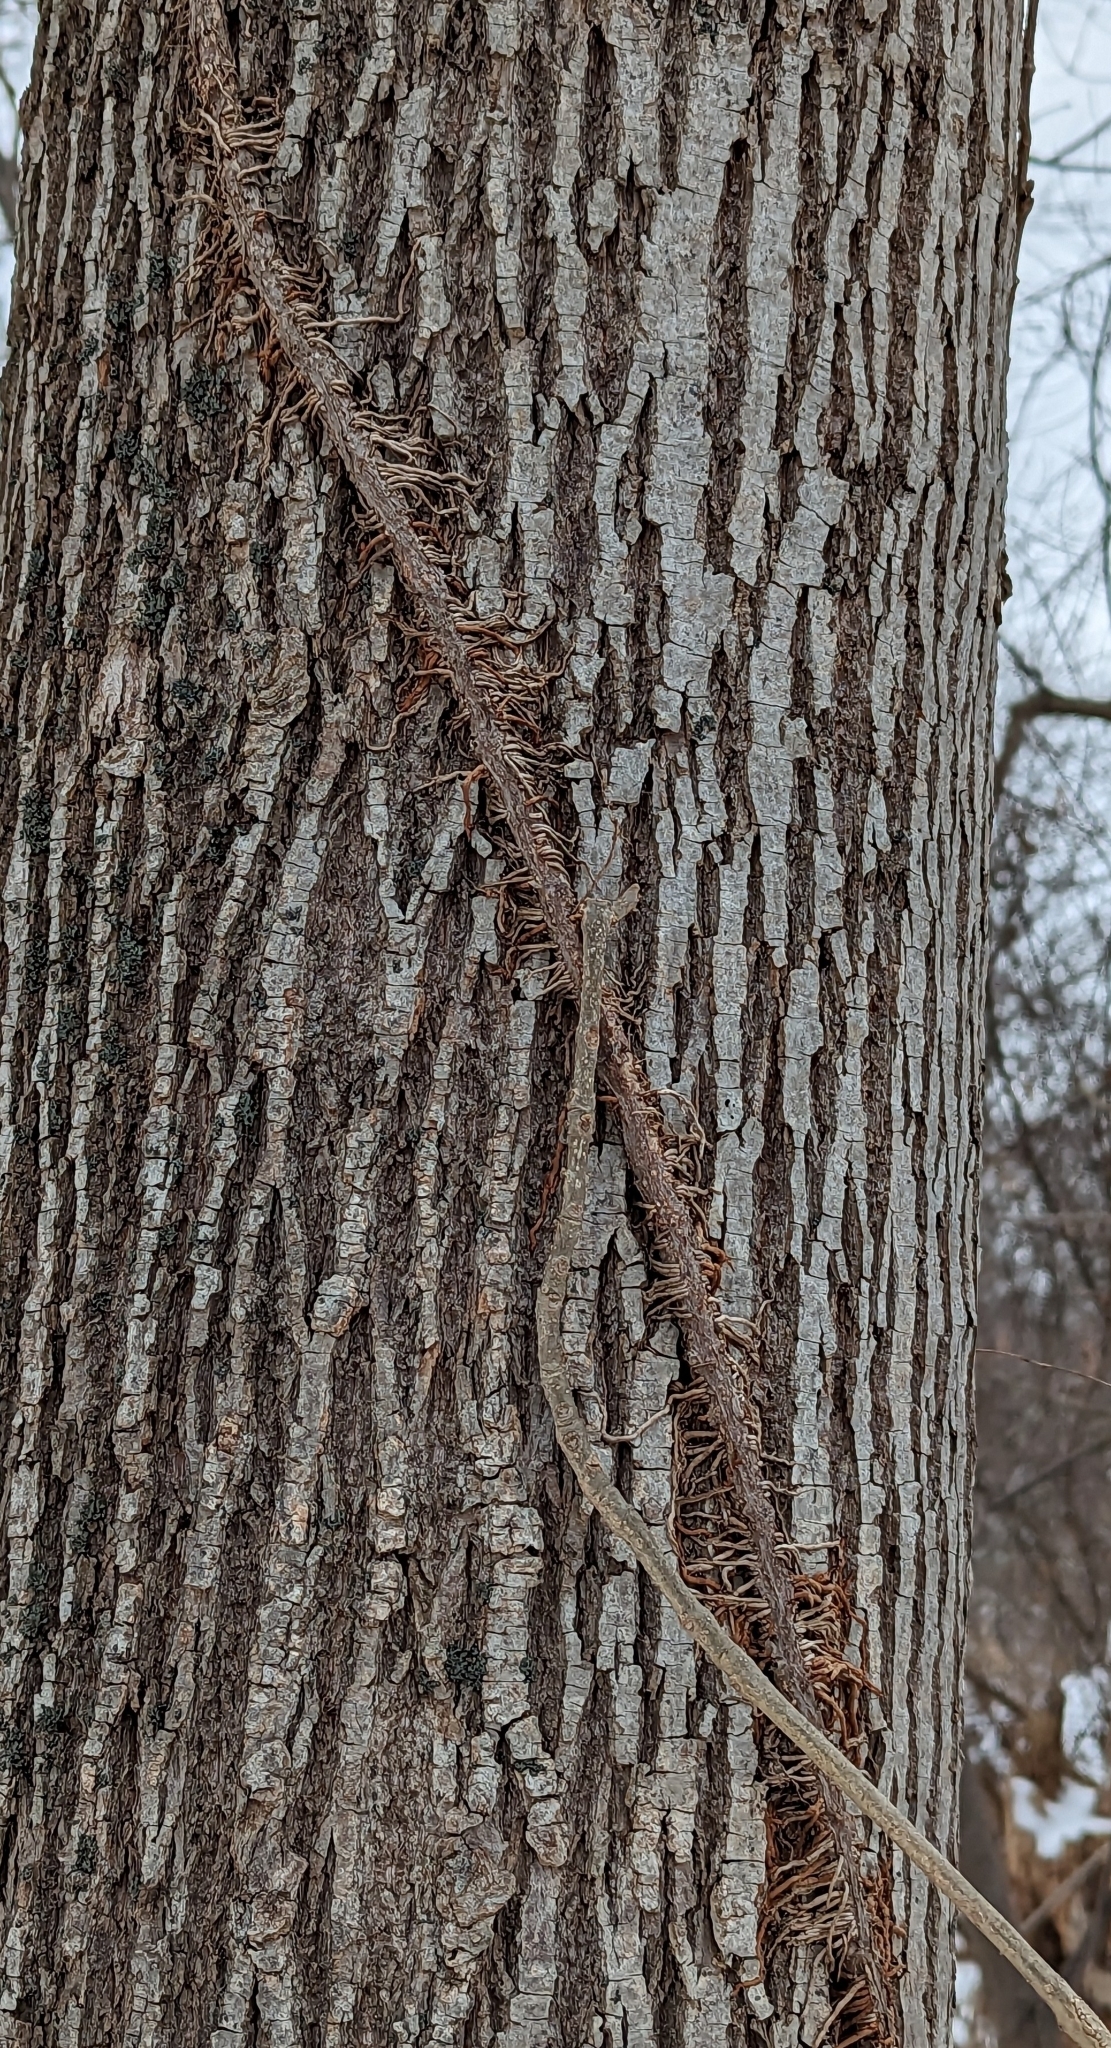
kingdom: Plantae
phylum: Tracheophyta
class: Magnoliopsida
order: Sapindales
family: Anacardiaceae
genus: Toxicodendron
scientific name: Toxicodendron radicans
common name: Poison ivy
